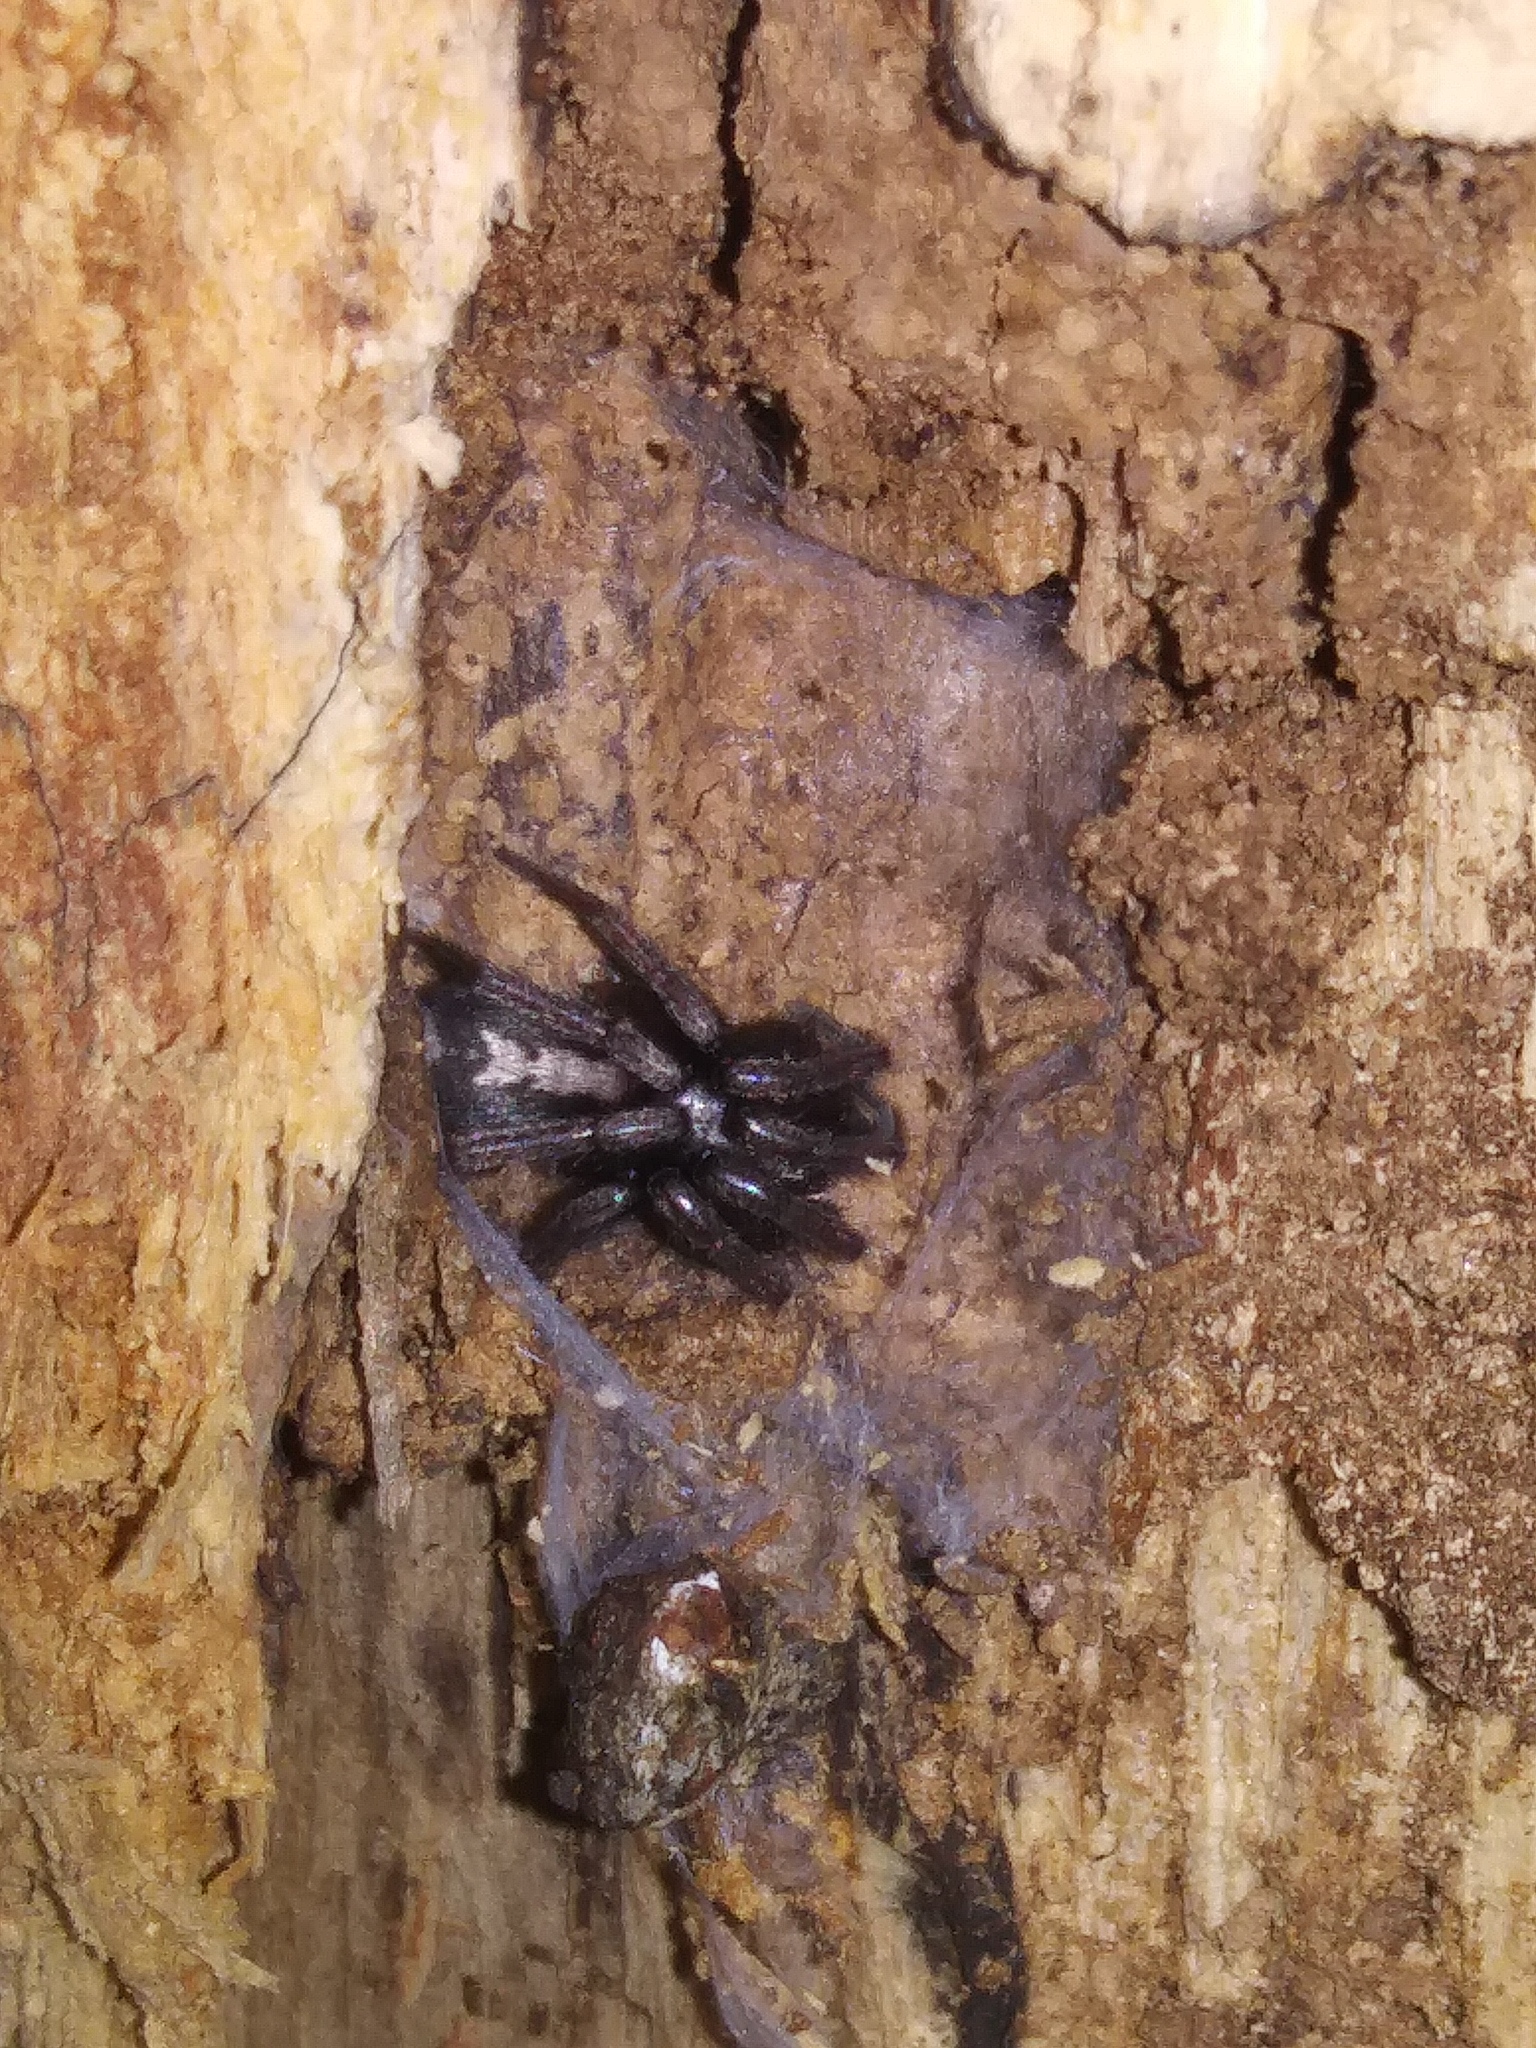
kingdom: Animalia
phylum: Arthropoda
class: Arachnida
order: Araneae
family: Gnaphosidae
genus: Herpyllus
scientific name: Herpyllus ecclesiasticus
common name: Eastern parson spider
